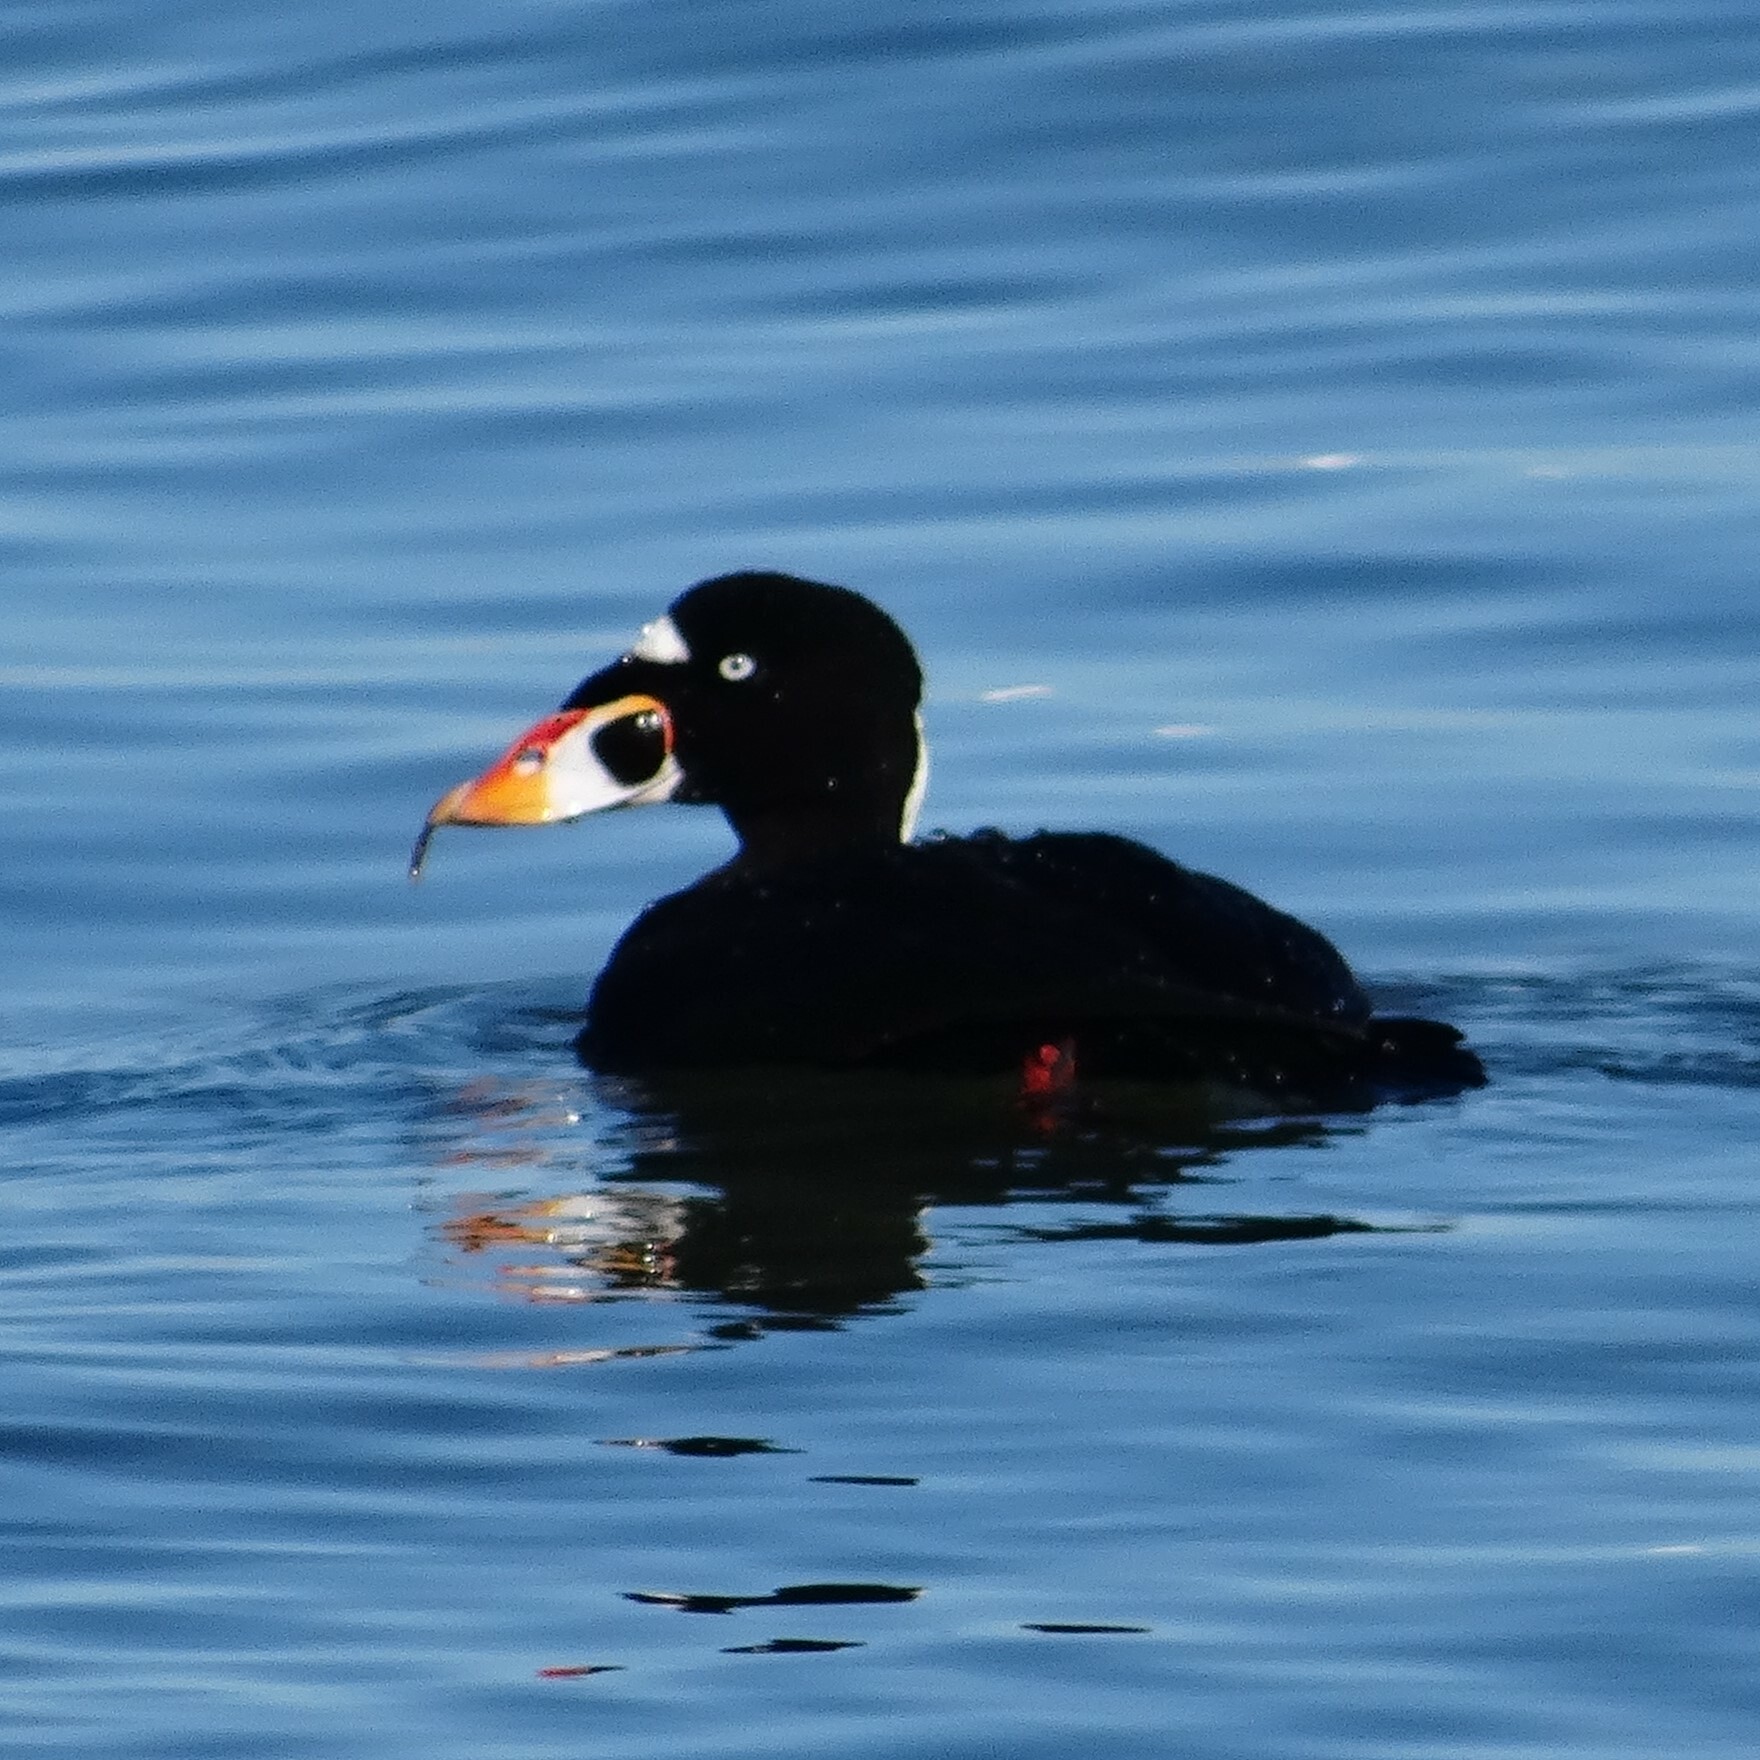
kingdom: Animalia
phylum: Chordata
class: Aves
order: Anseriformes
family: Anatidae
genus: Melanitta
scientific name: Melanitta perspicillata
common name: Surf scoter
